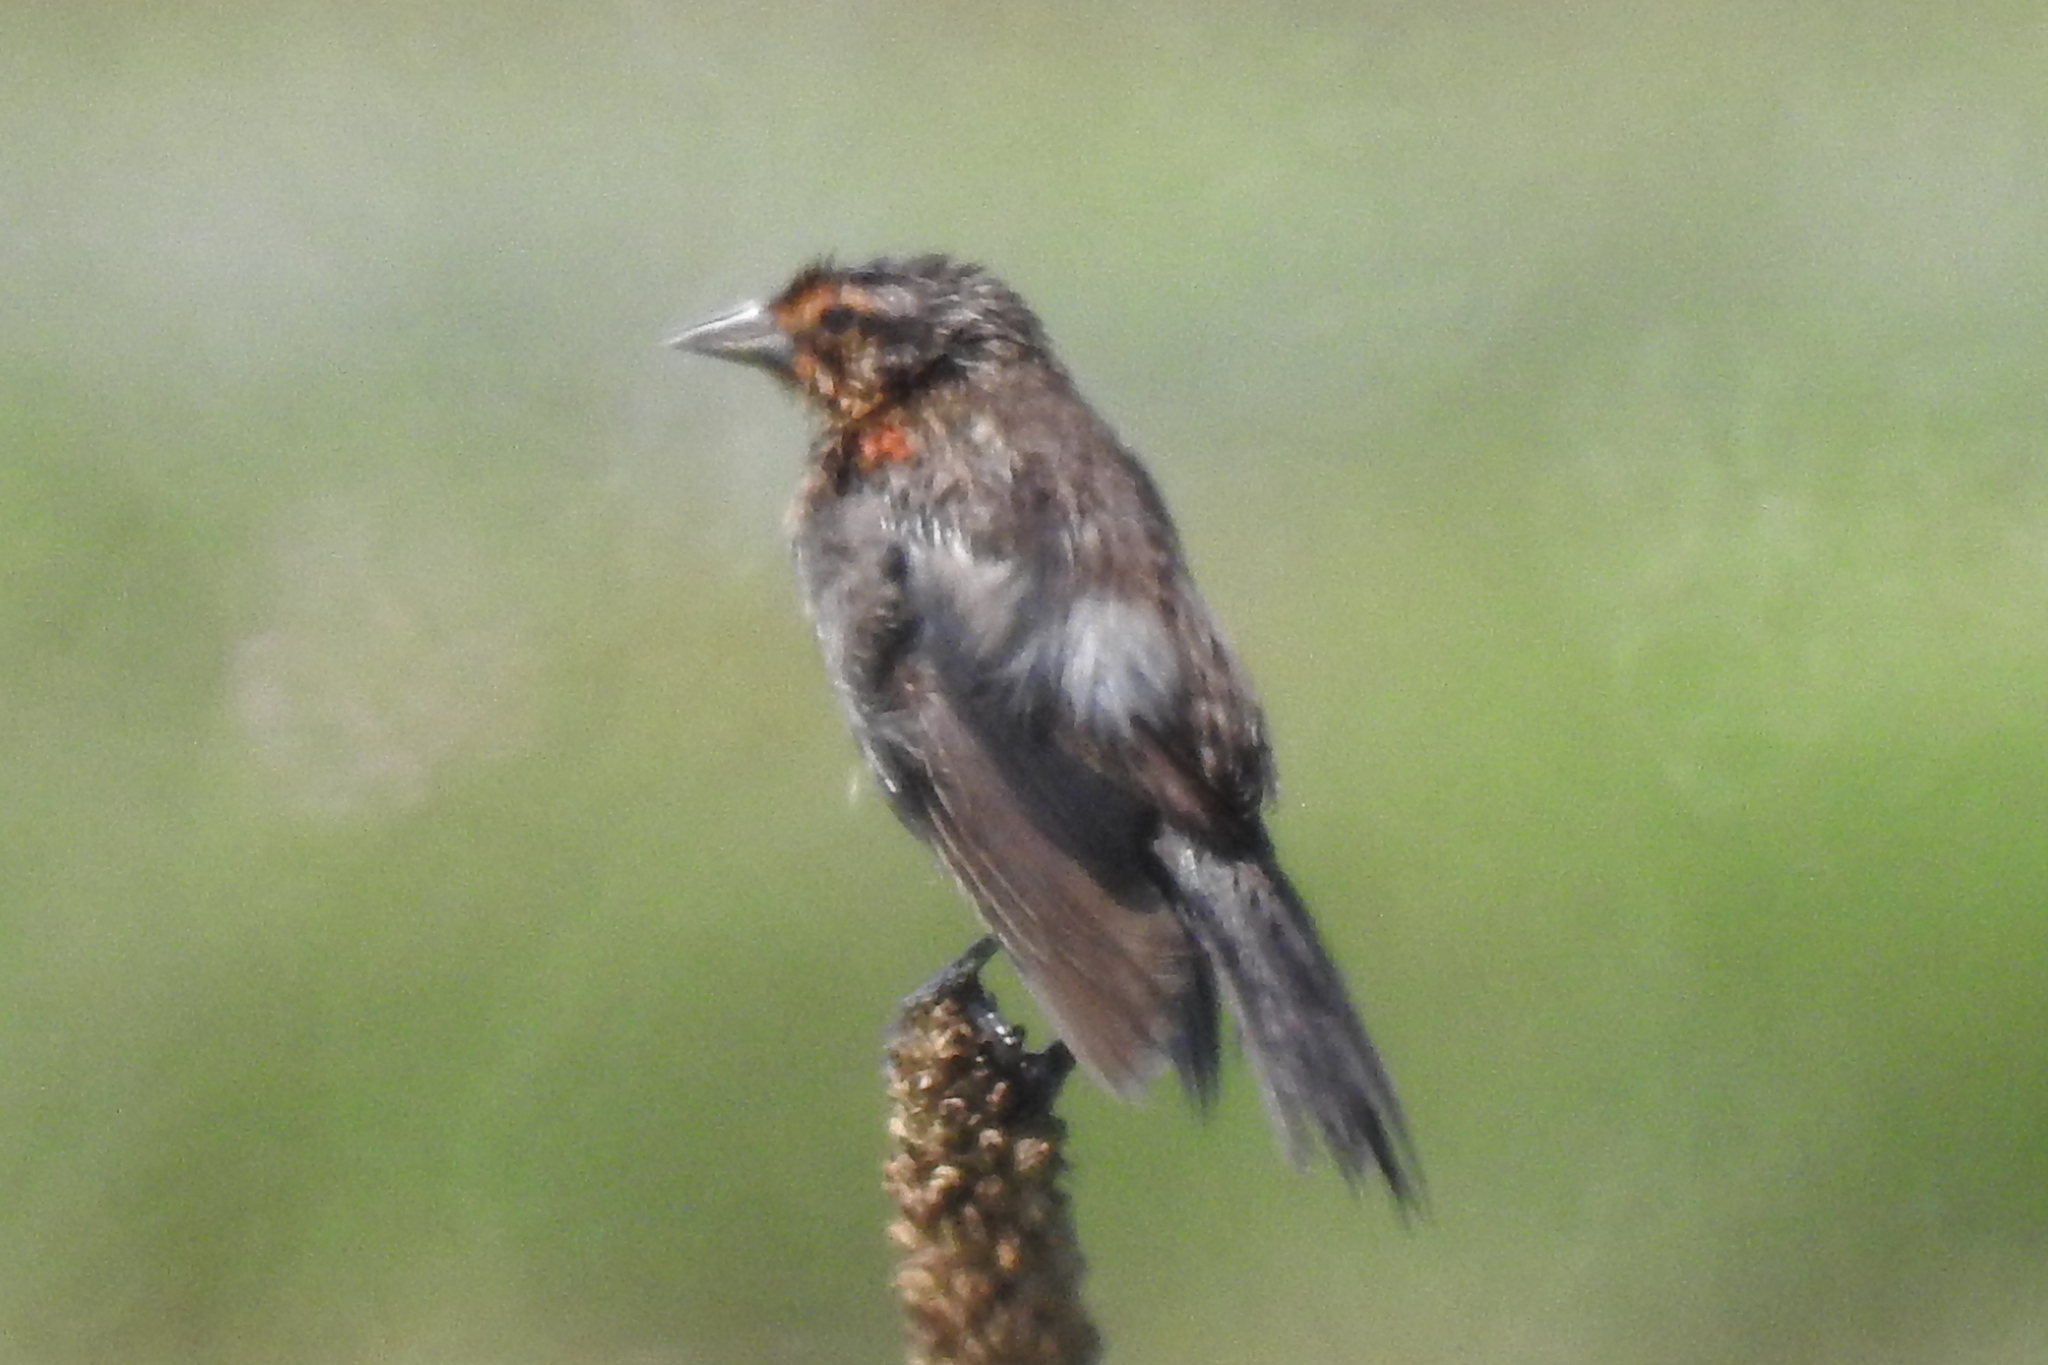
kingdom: Animalia
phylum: Chordata
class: Aves
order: Passeriformes
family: Icteridae
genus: Agelaius
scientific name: Agelaius phoeniceus
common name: Red-winged blackbird
